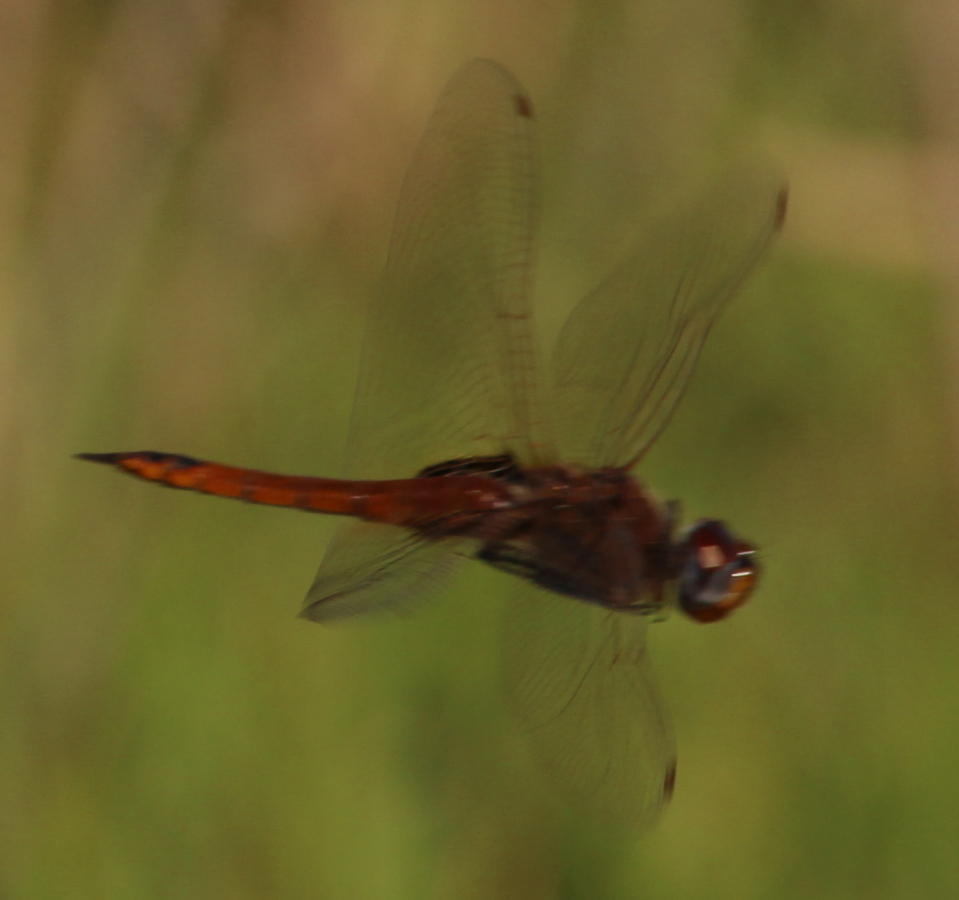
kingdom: Animalia
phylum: Arthropoda
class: Insecta
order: Odonata
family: Libellulidae
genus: Tramea
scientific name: Tramea limbata
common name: Ferruginous glider
